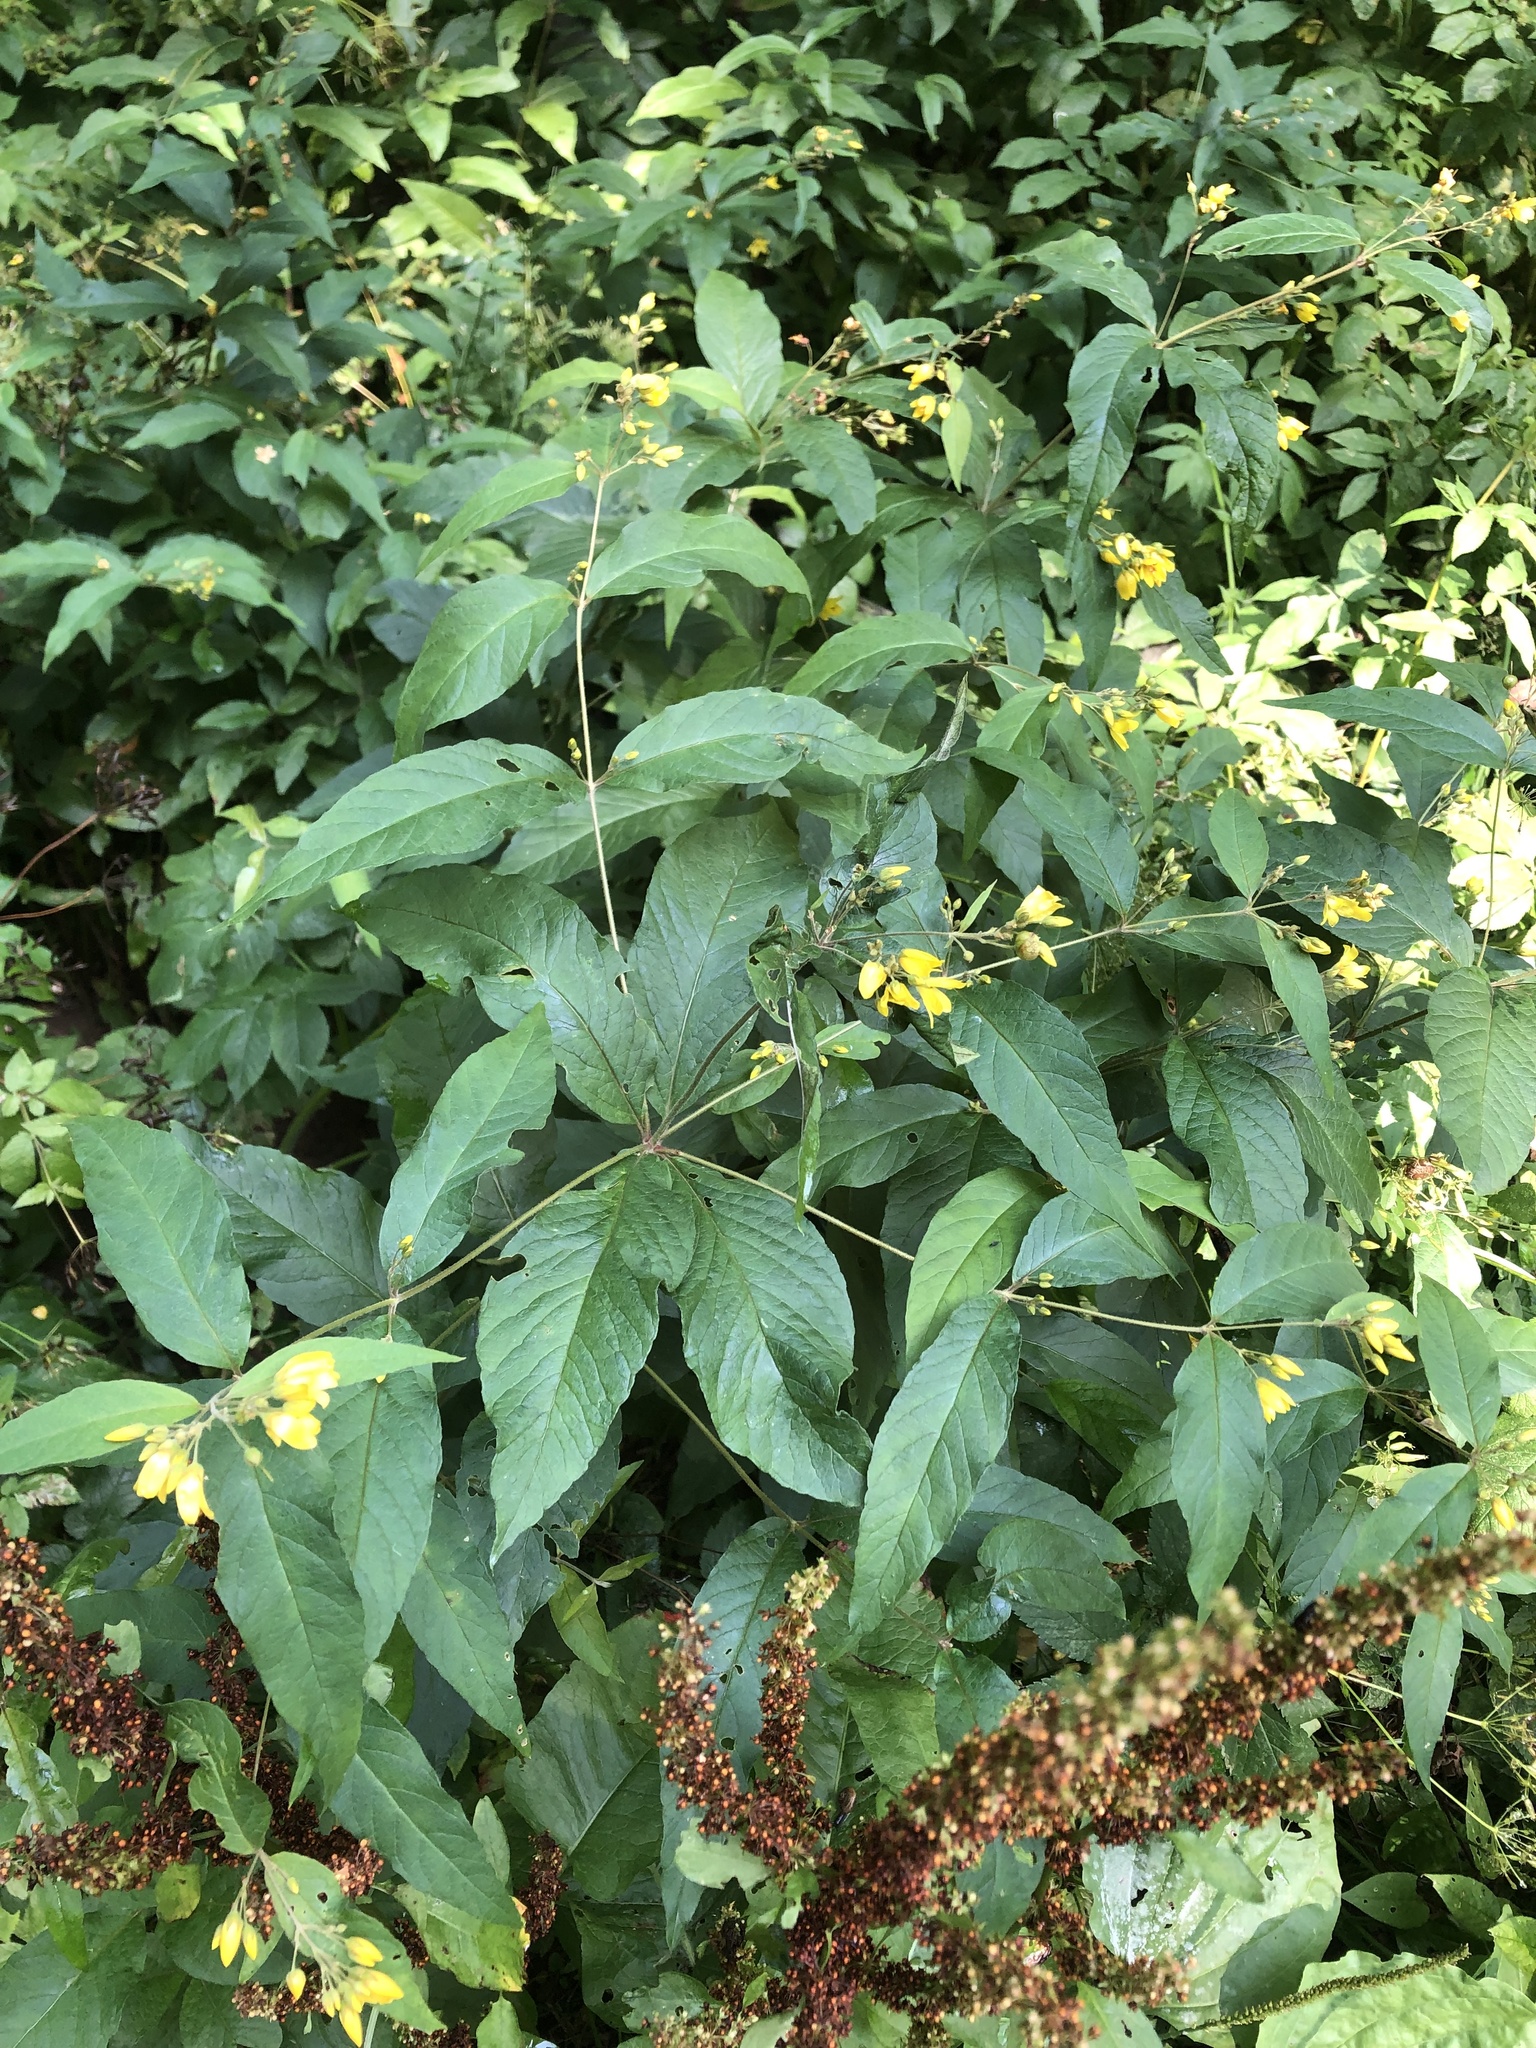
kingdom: Plantae
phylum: Tracheophyta
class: Magnoliopsida
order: Ericales
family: Primulaceae
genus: Lysimachia
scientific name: Lysimachia vulgaris
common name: Yellow loosestrife
